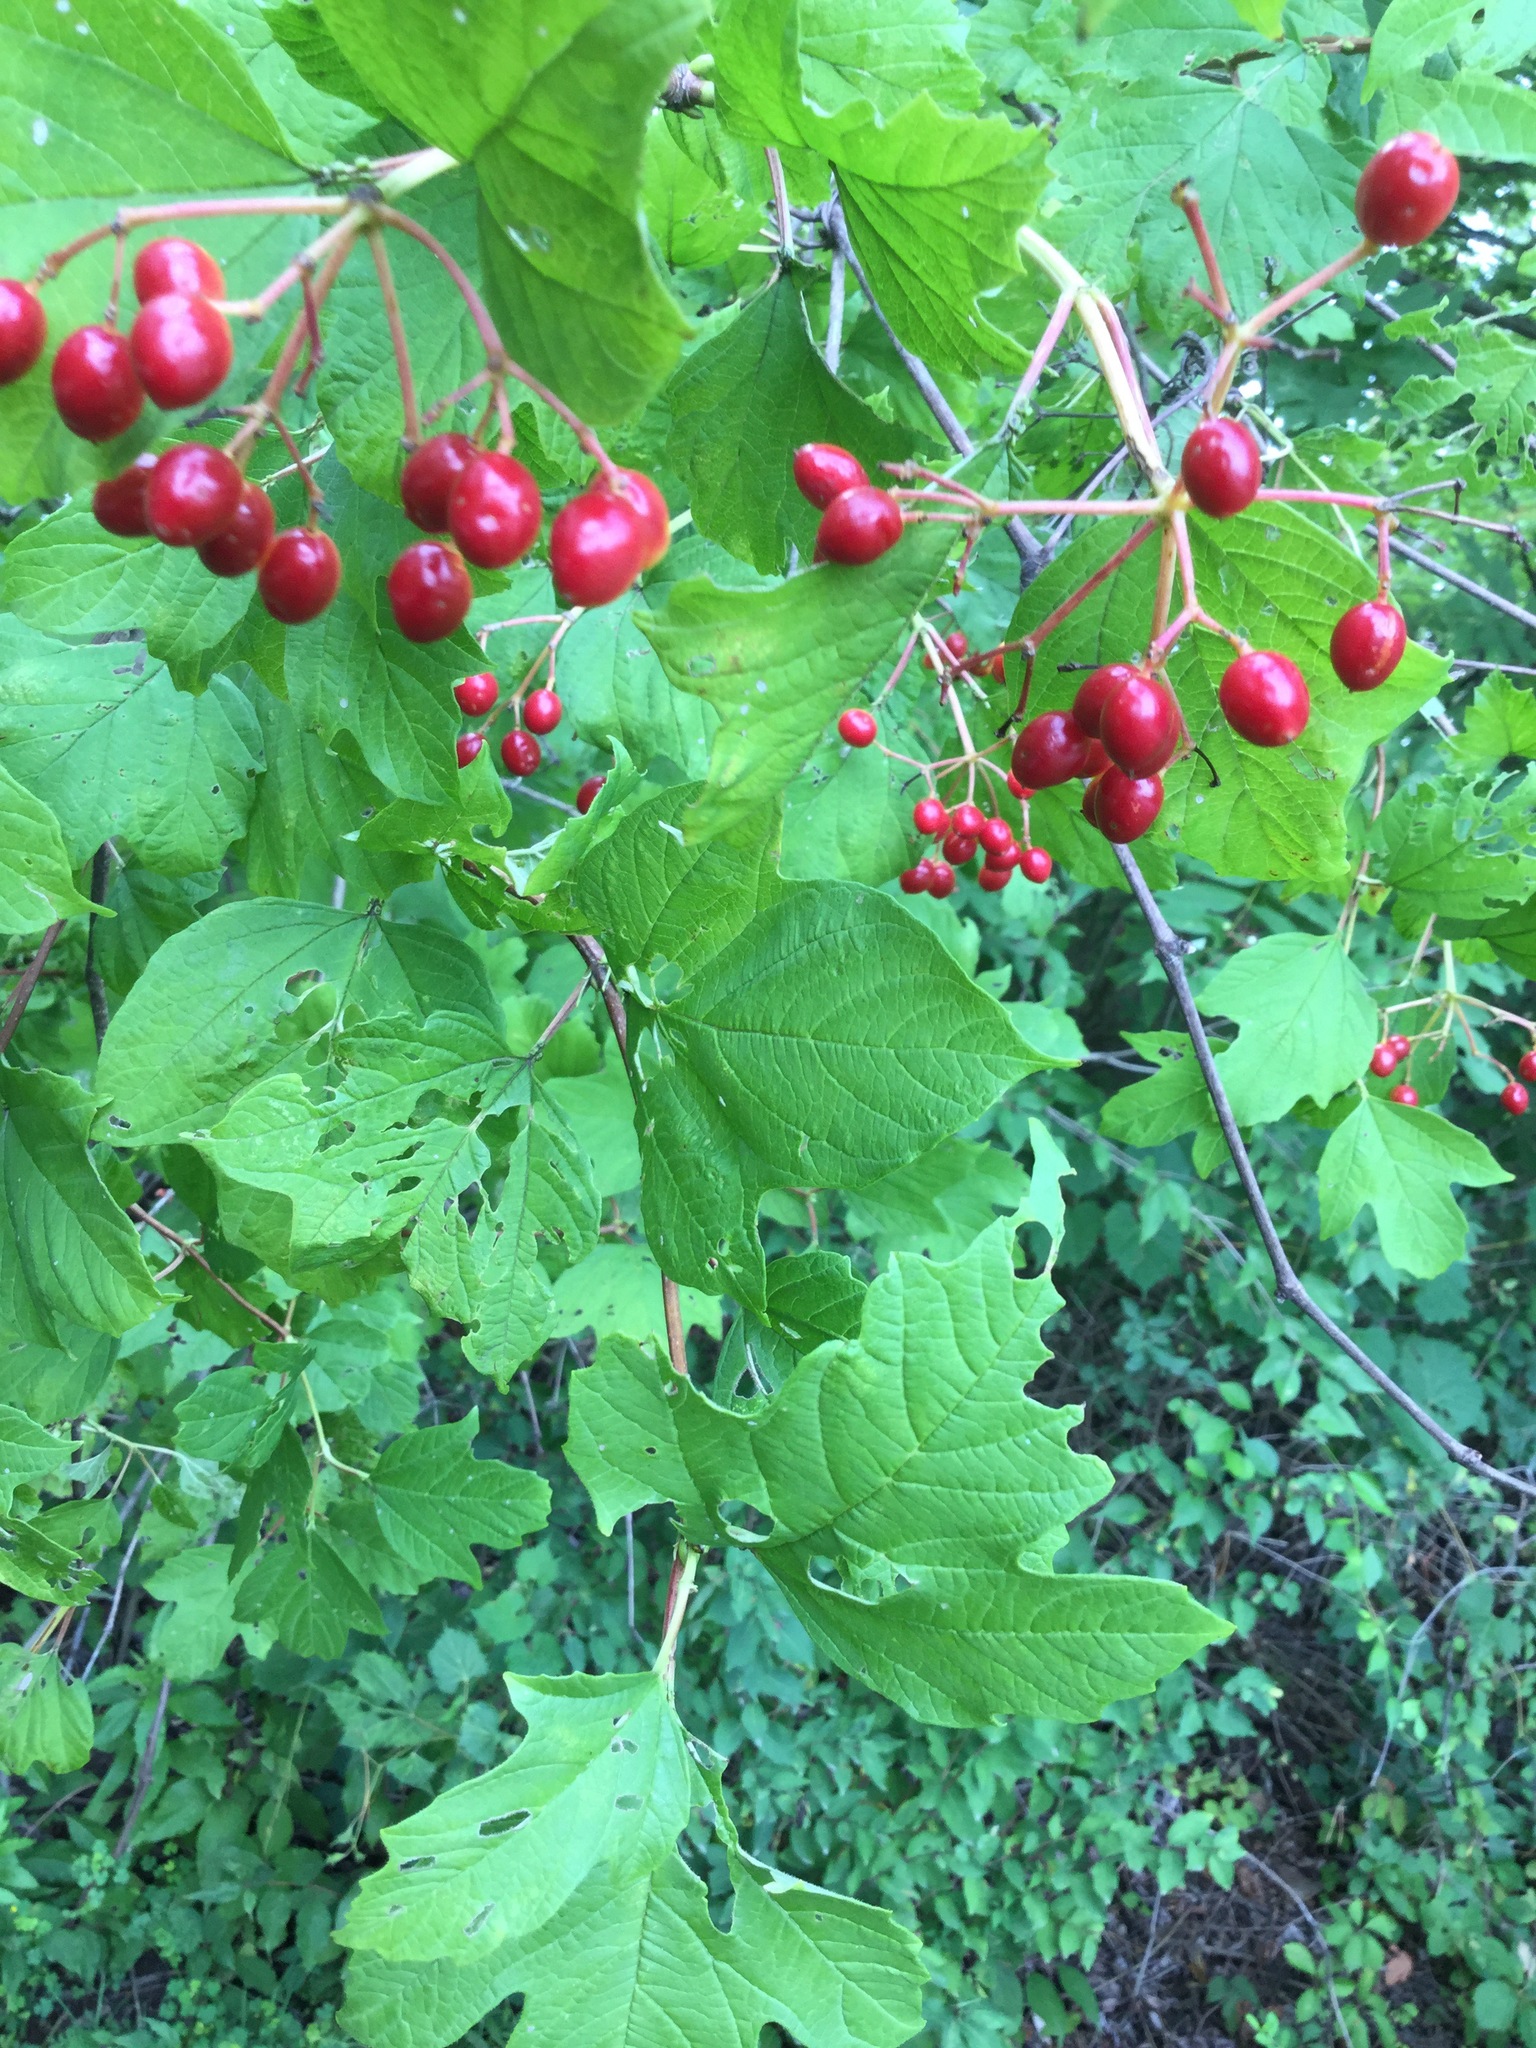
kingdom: Plantae
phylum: Tracheophyta
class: Magnoliopsida
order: Dipsacales
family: Viburnaceae
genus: Viburnum
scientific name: Viburnum opulus
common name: Guelder-rose
